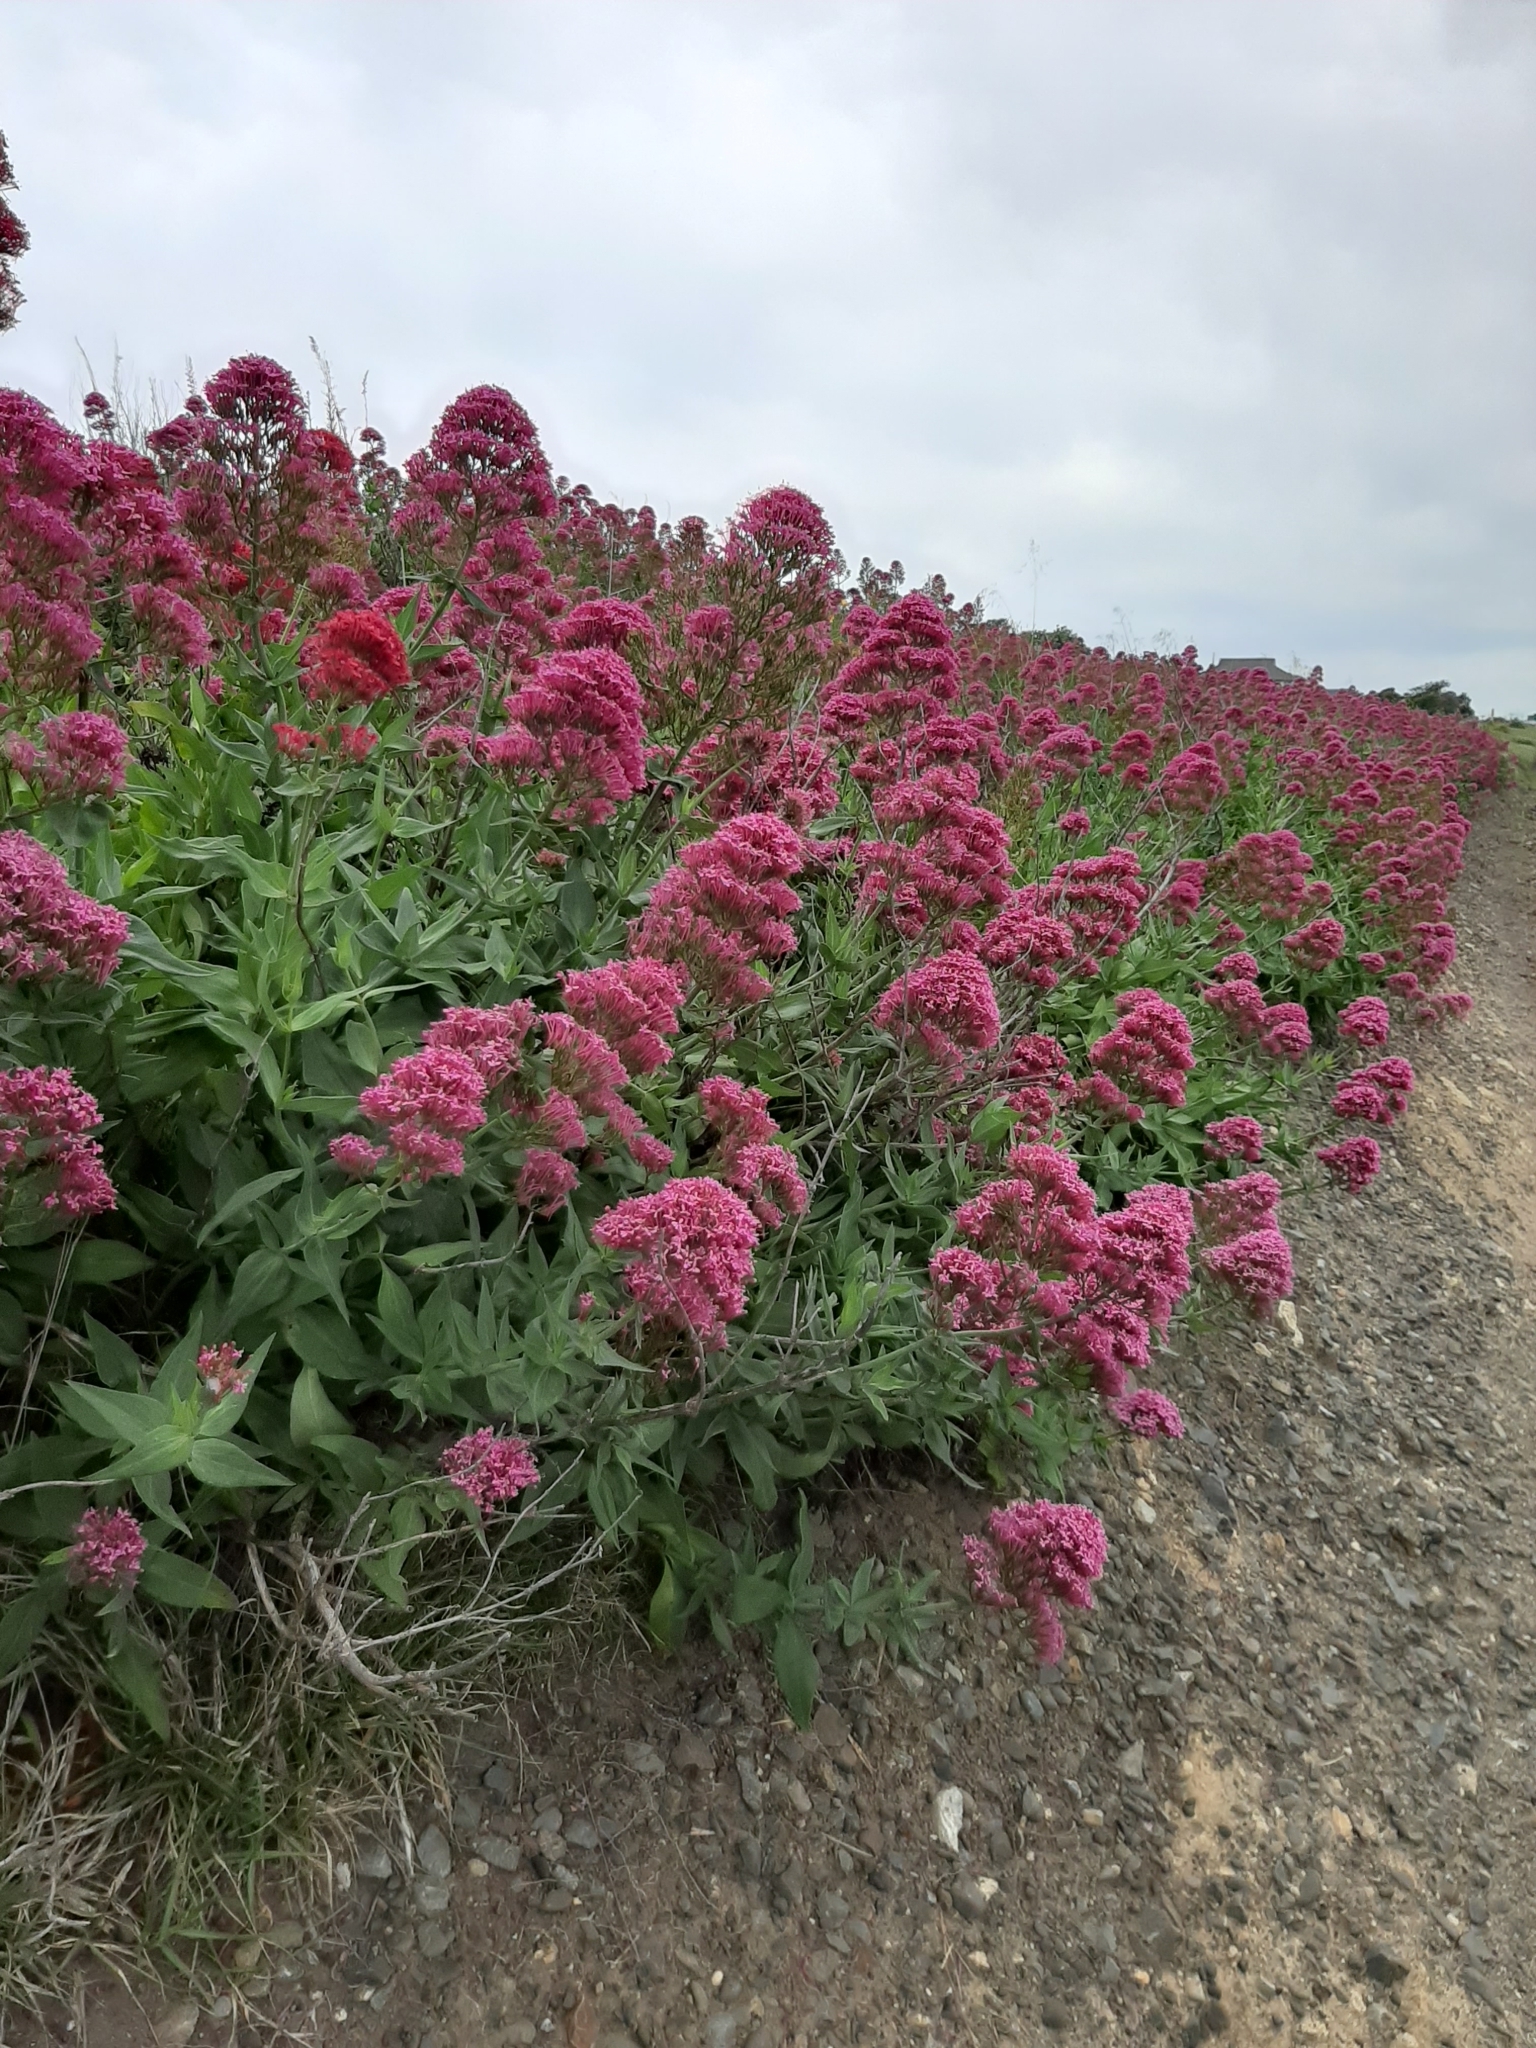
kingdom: Plantae
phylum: Tracheophyta
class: Magnoliopsida
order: Dipsacales
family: Caprifoliaceae
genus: Centranthus
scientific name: Centranthus ruber
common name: Red valerian
